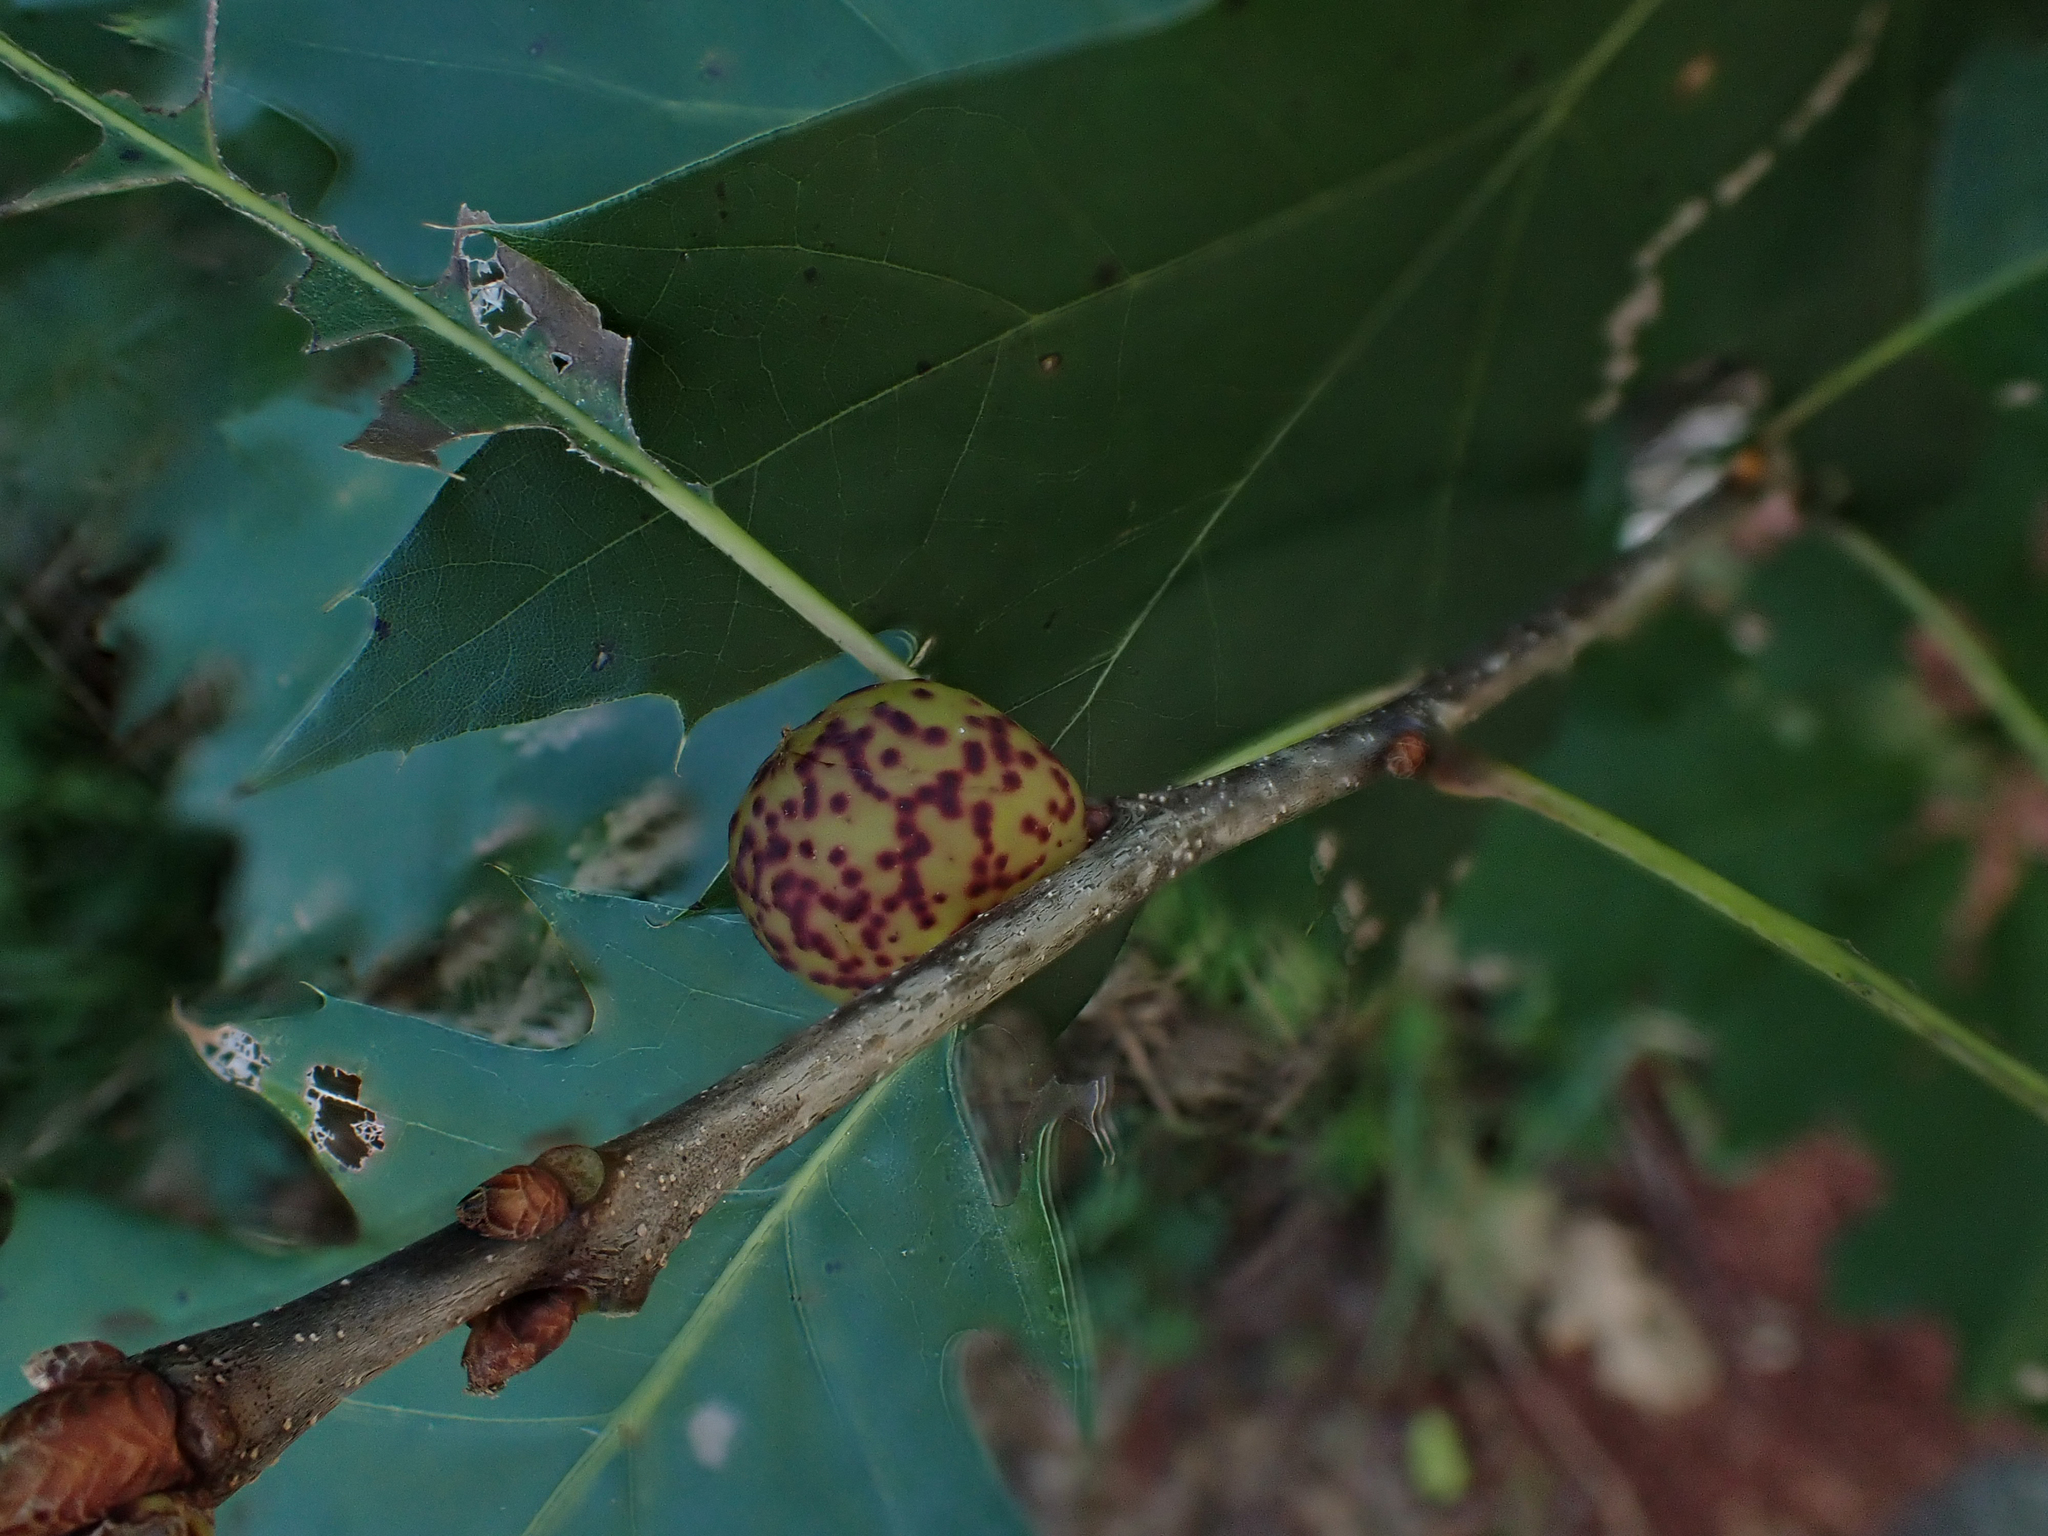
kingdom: Animalia
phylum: Arthropoda
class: Insecta
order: Hymenoptera
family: Cynipidae
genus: Amphibolips
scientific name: Amphibolips
